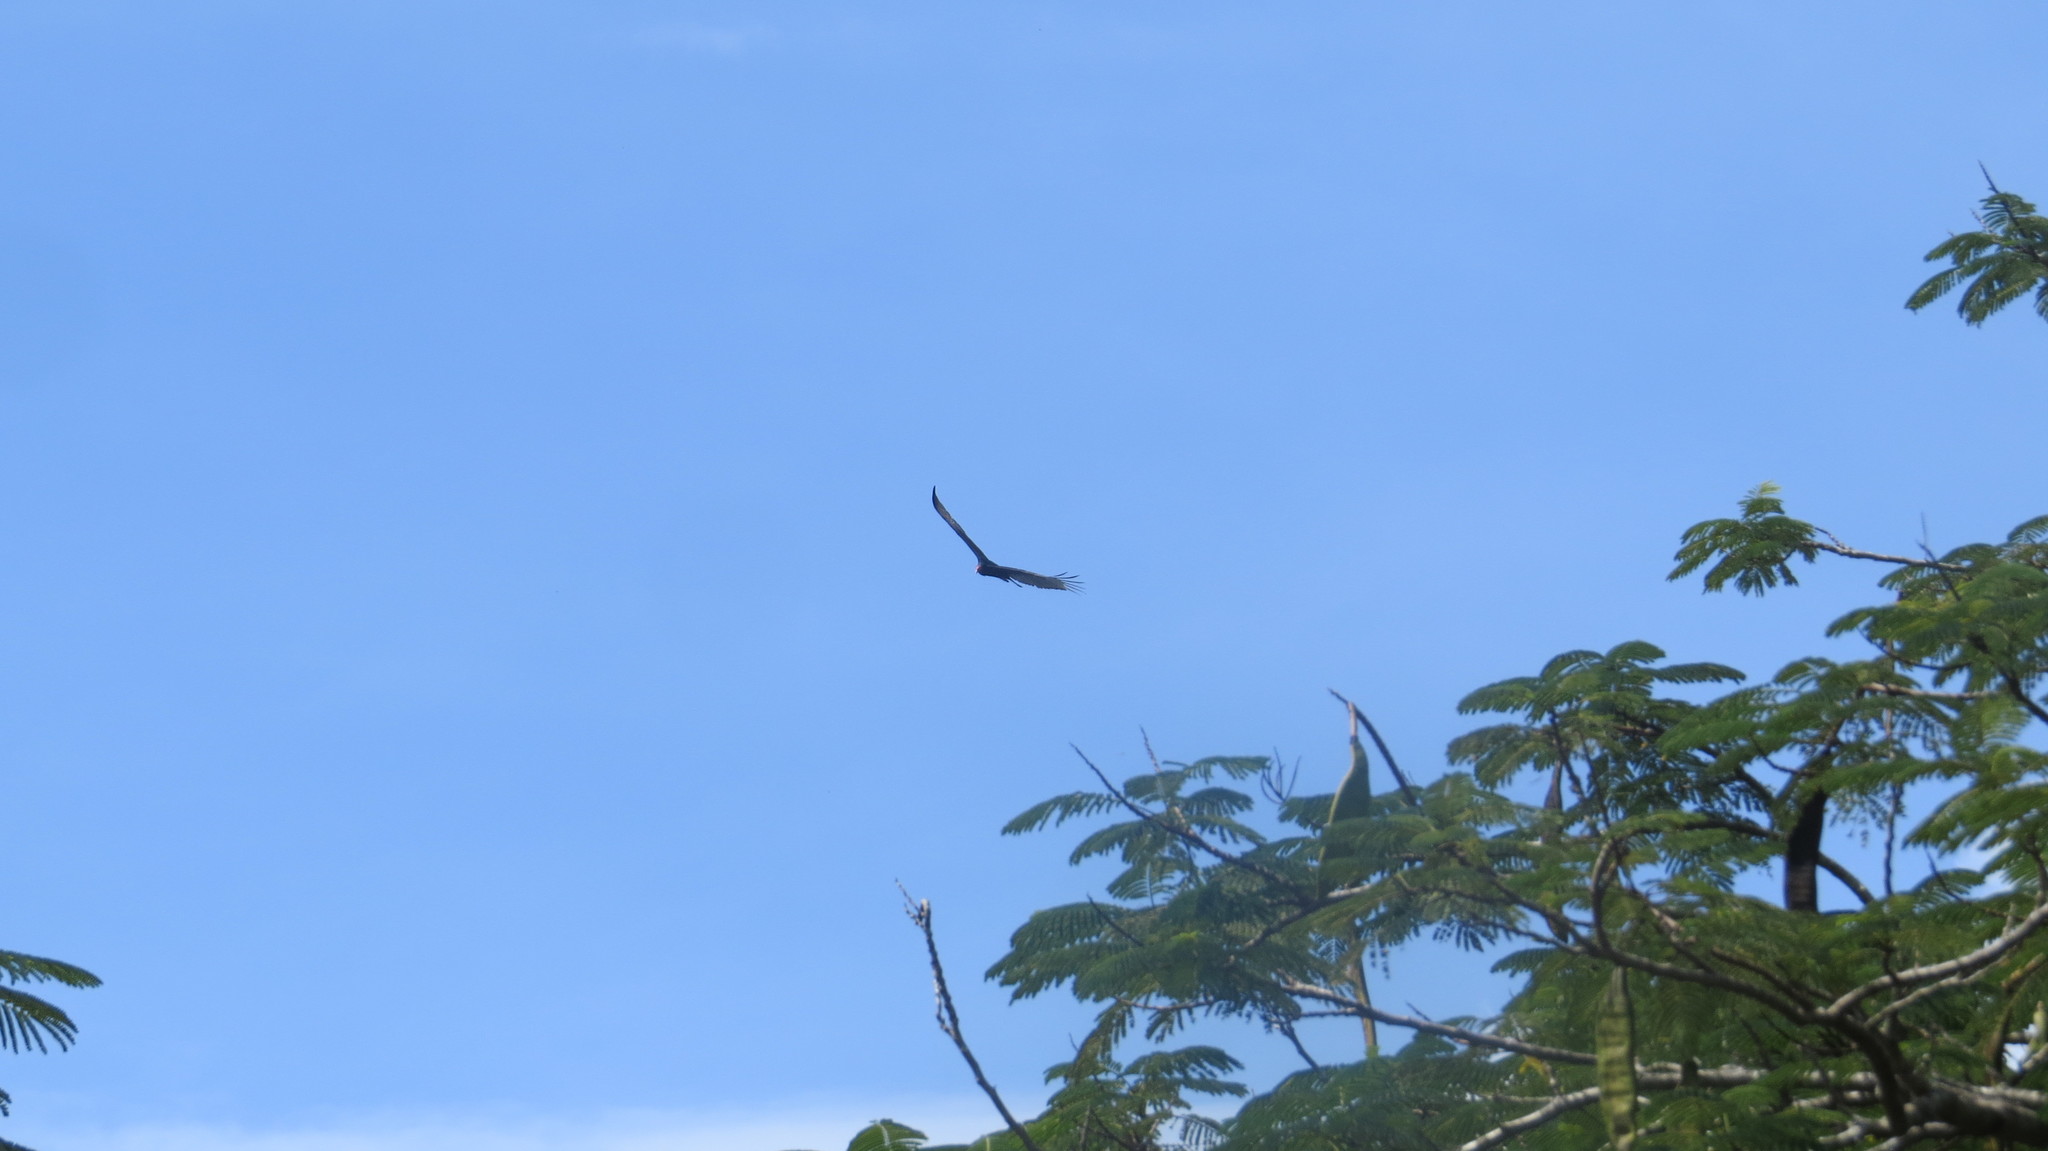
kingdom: Animalia
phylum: Chordata
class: Aves
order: Accipitriformes
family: Cathartidae
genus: Cathartes
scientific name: Cathartes aura
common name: Turkey vulture
